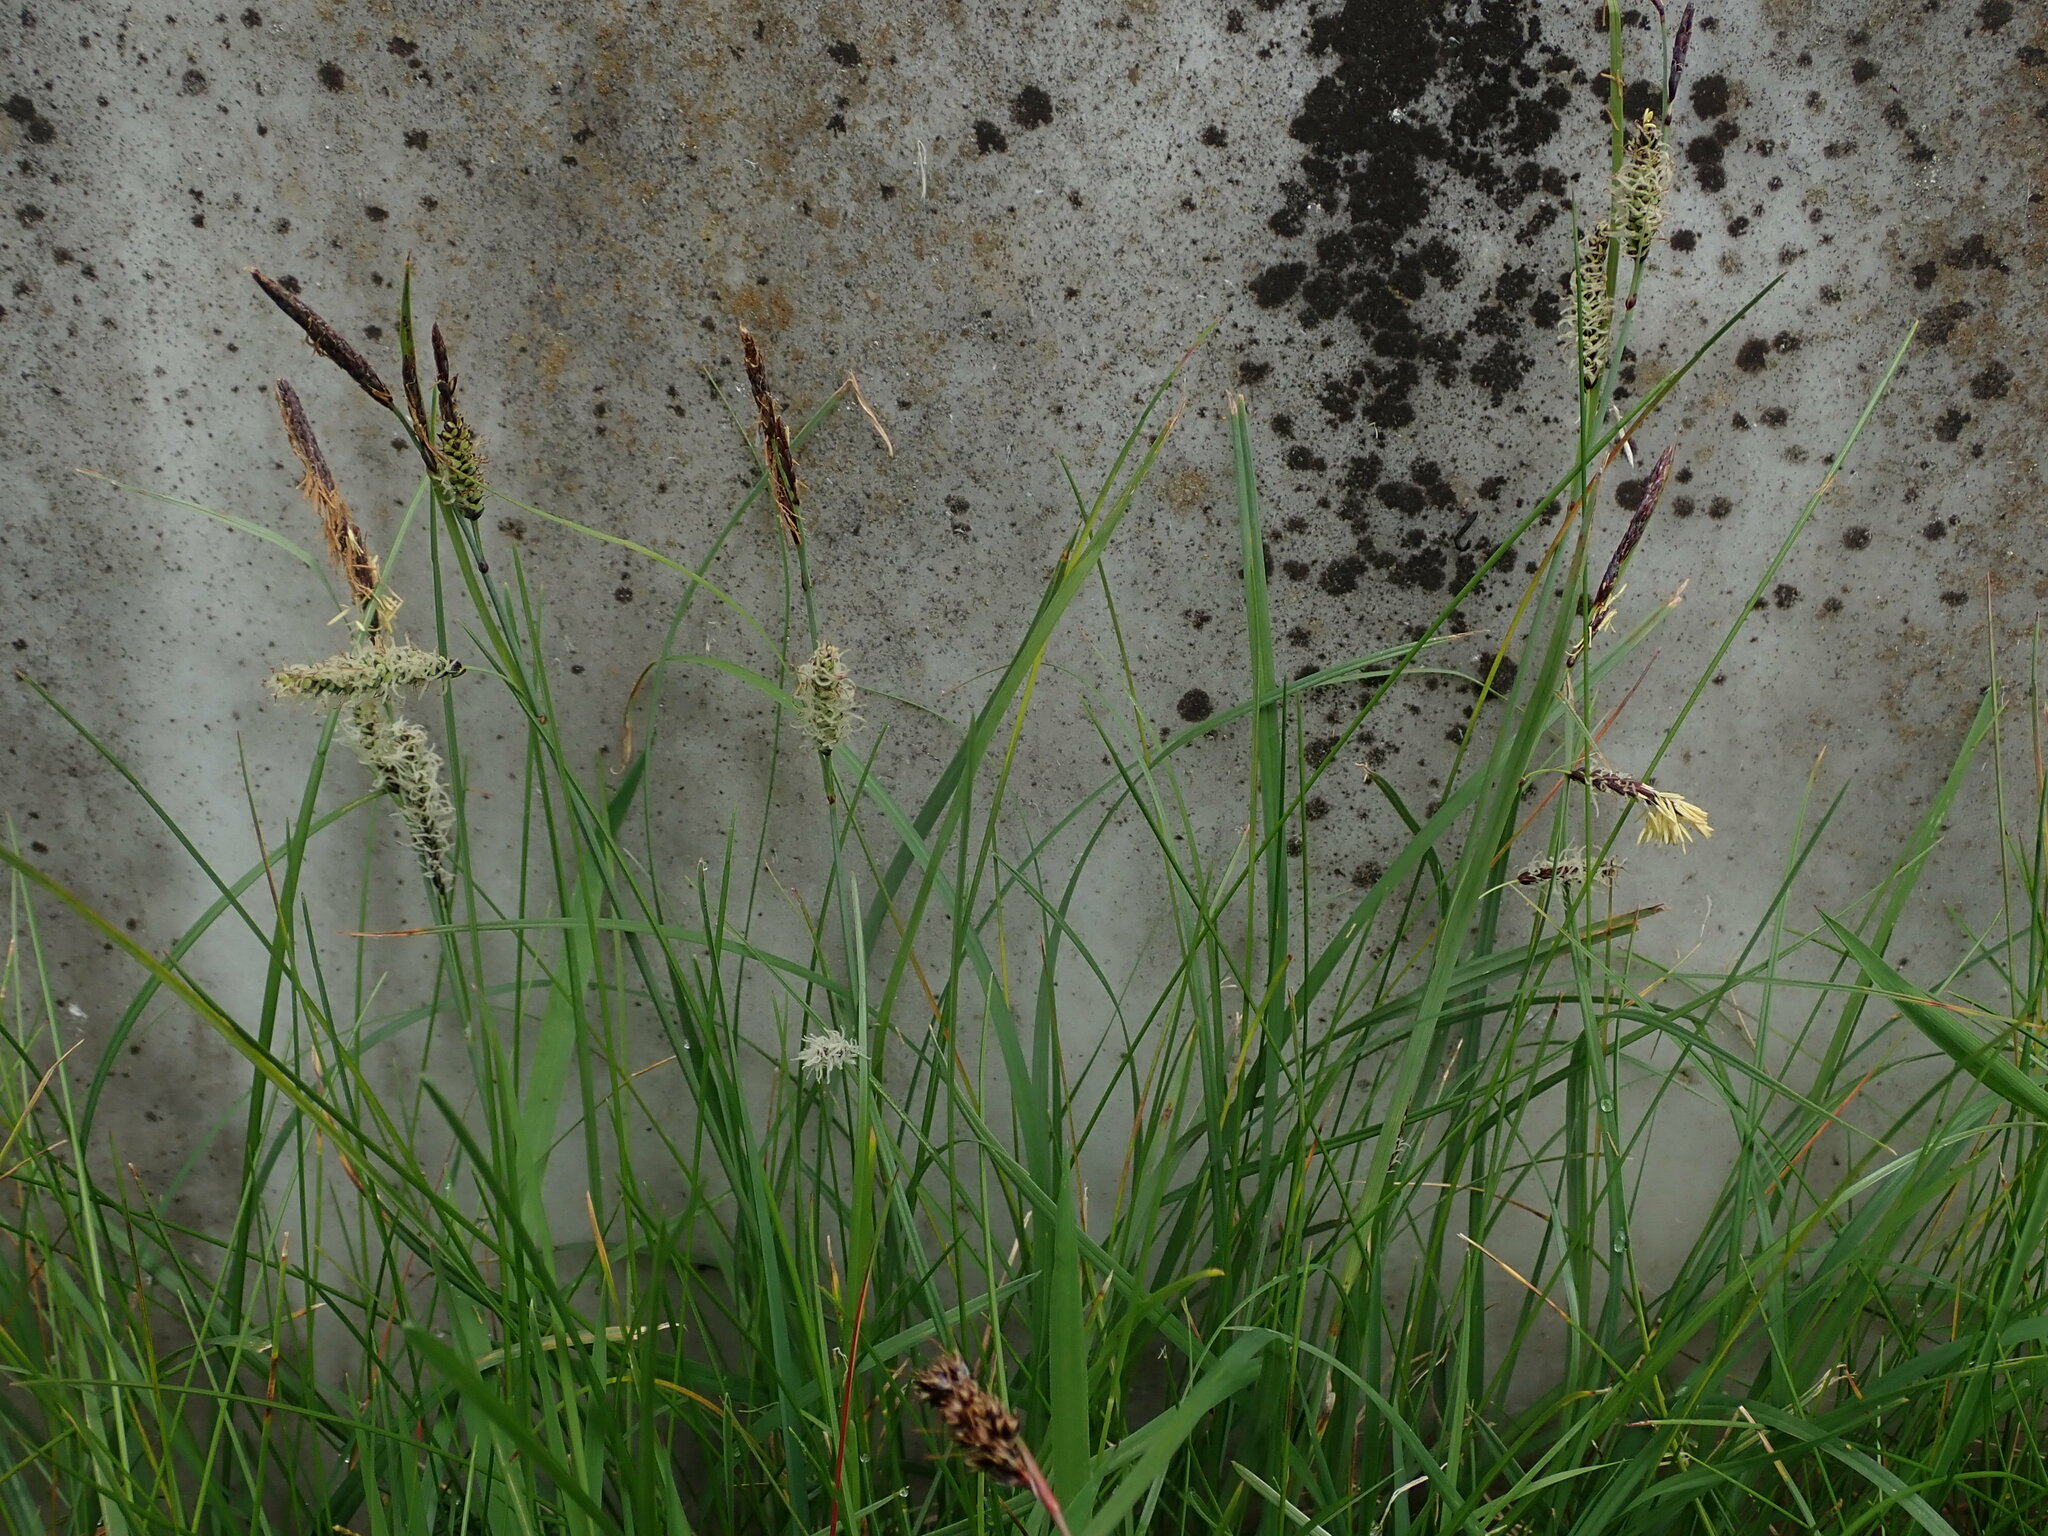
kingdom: Plantae
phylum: Tracheophyta
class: Liliopsida
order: Poales
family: Cyperaceae
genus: Carex
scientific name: Carex flacca
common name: Glaucous sedge
